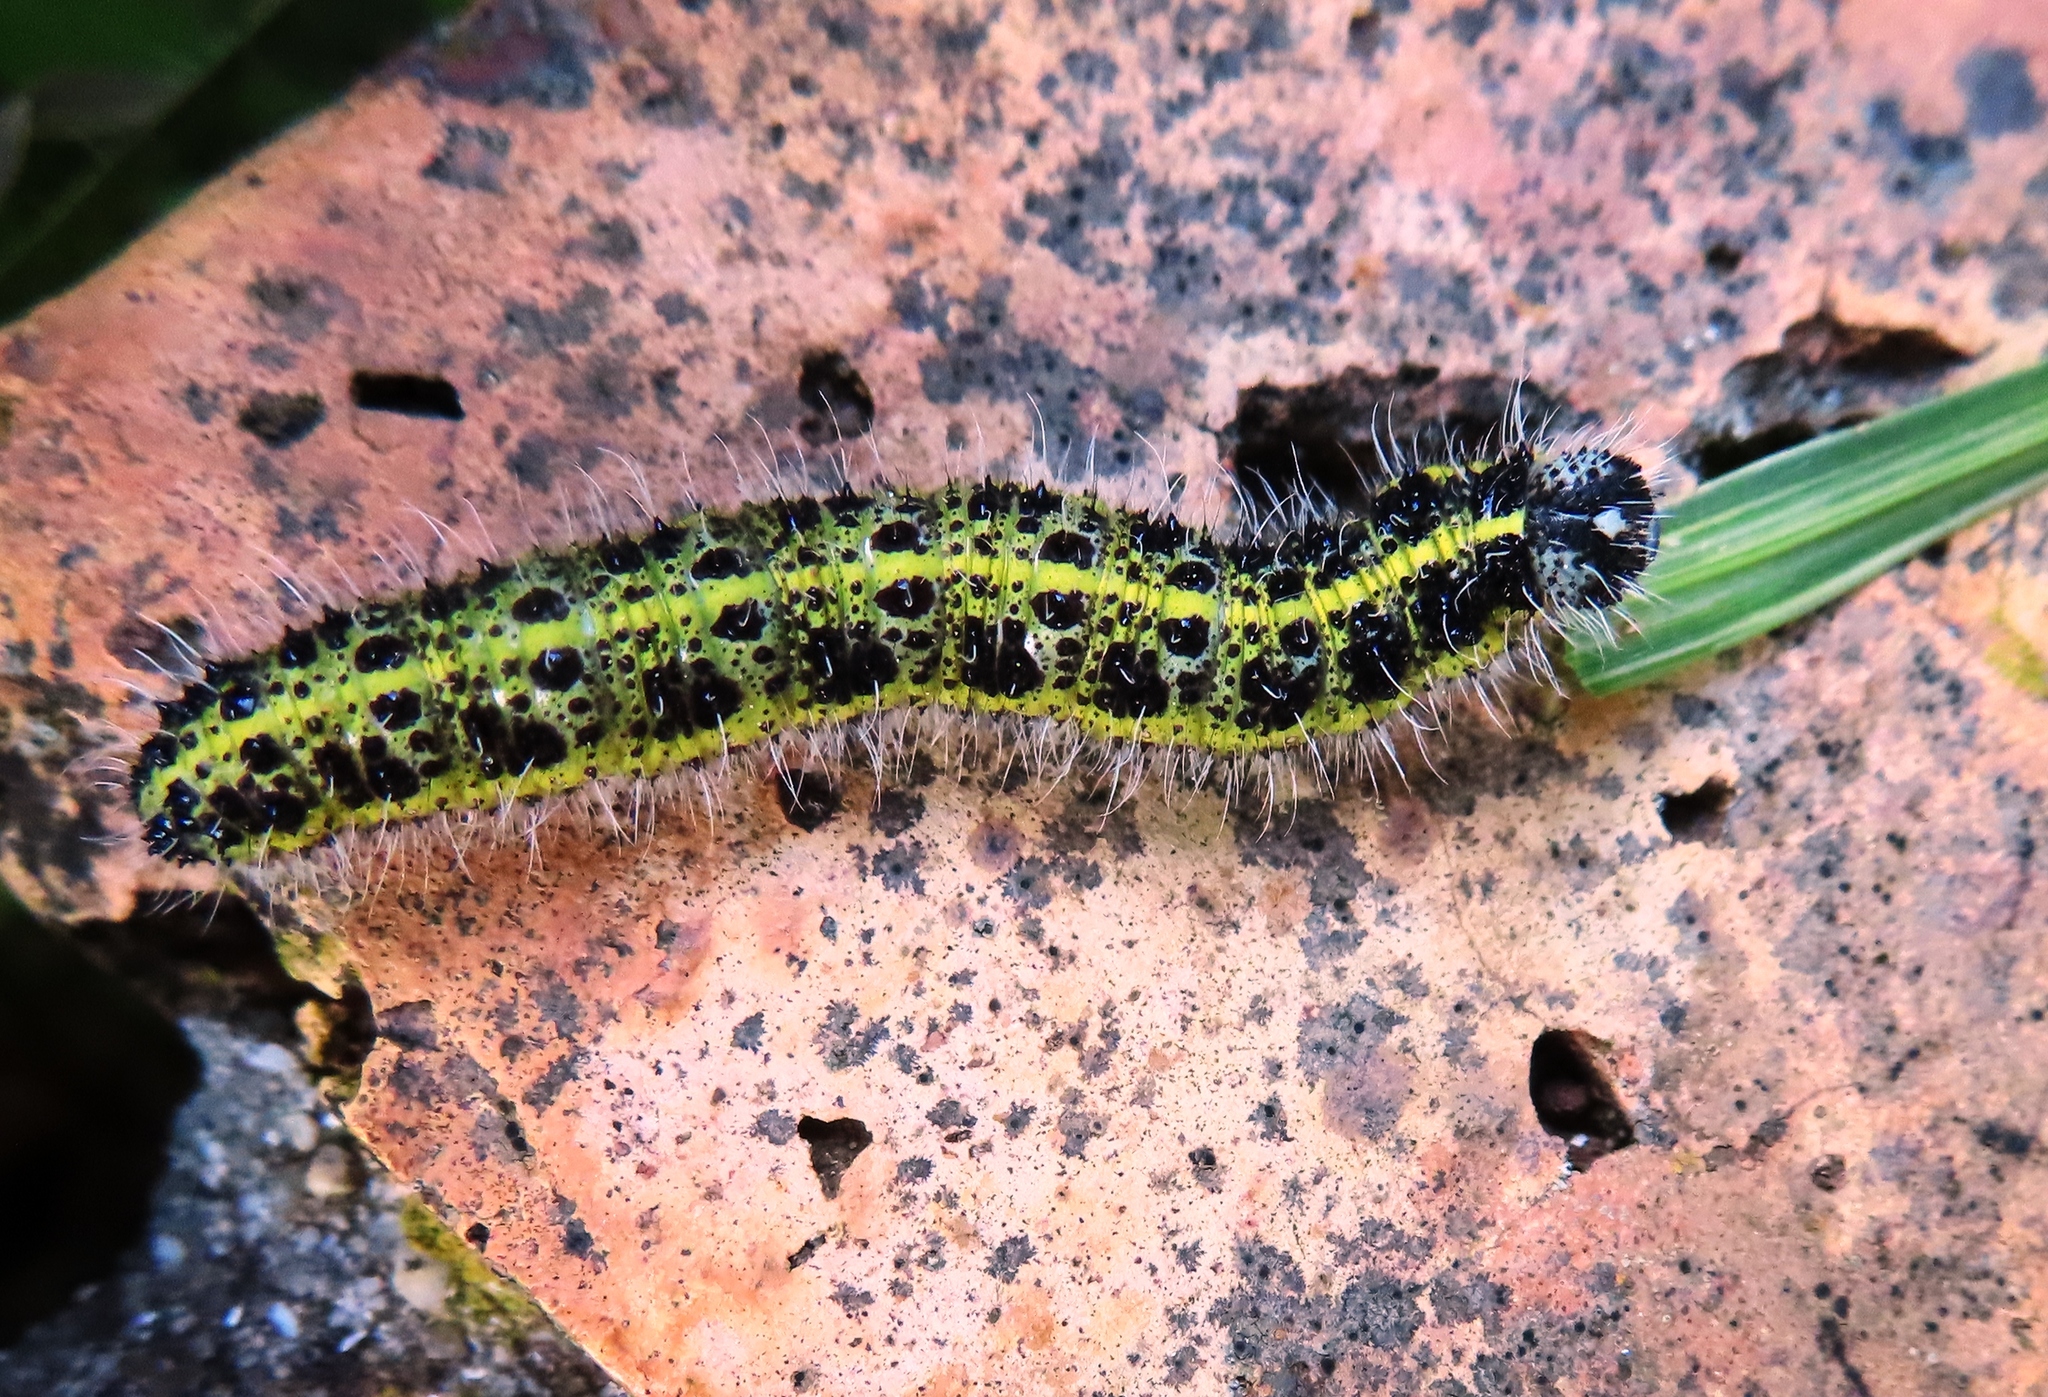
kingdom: Animalia
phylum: Arthropoda
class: Insecta
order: Lepidoptera
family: Pieridae
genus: Pieris
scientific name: Pieris brassicae
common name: Large white
